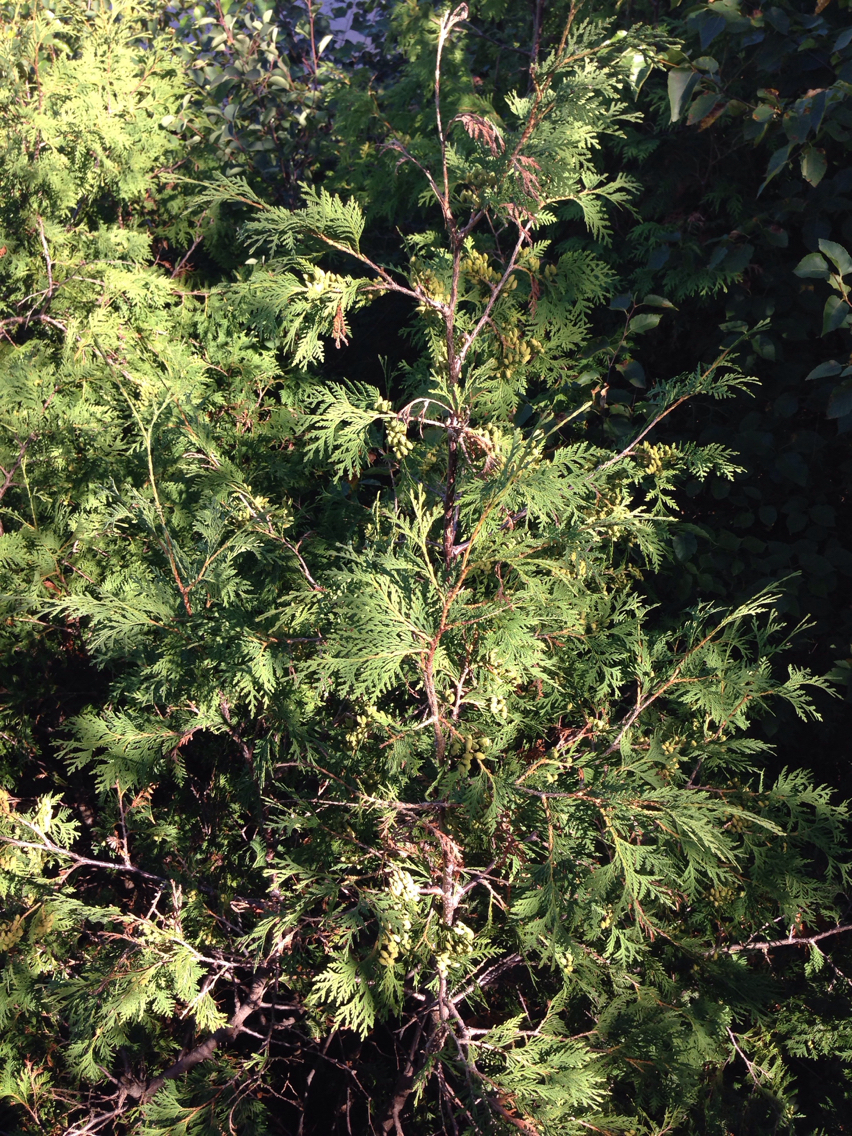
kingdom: Plantae
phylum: Tracheophyta
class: Pinopsida
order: Pinales
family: Cupressaceae
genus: Thuja
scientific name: Thuja occidentalis
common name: Northern white-cedar
